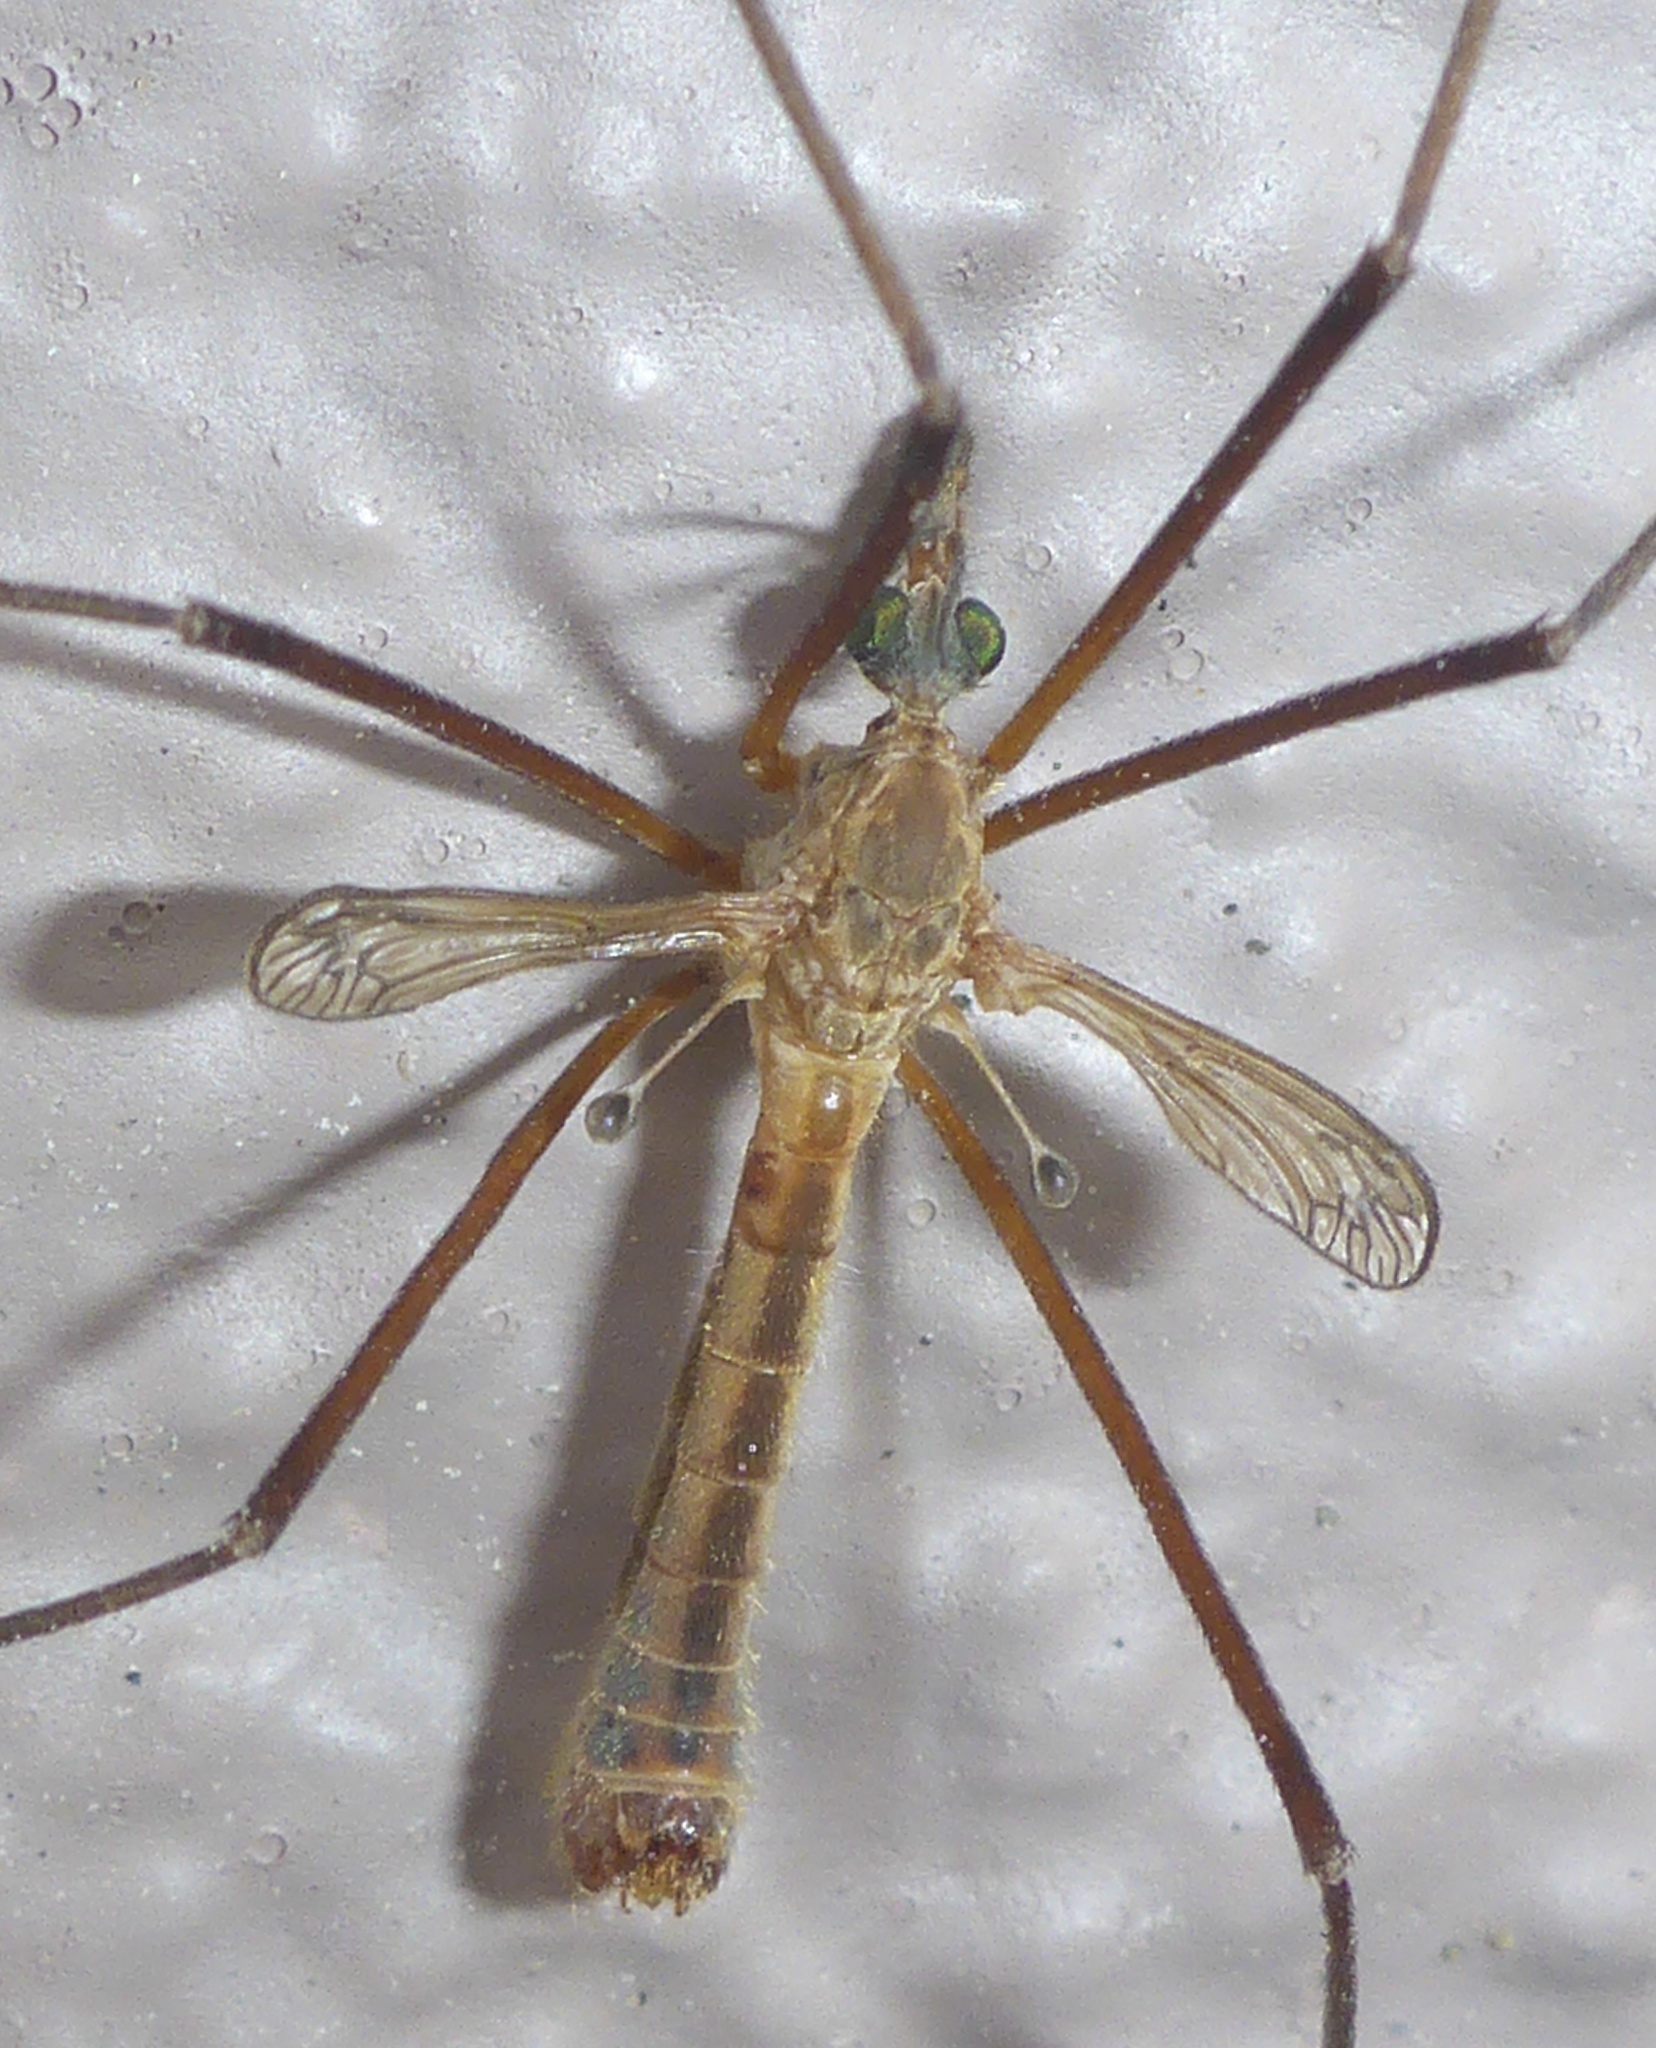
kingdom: Animalia
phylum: Arthropoda
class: Insecta
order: Diptera
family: Tipulidae
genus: Tipula
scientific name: Tipula vestigipennis
